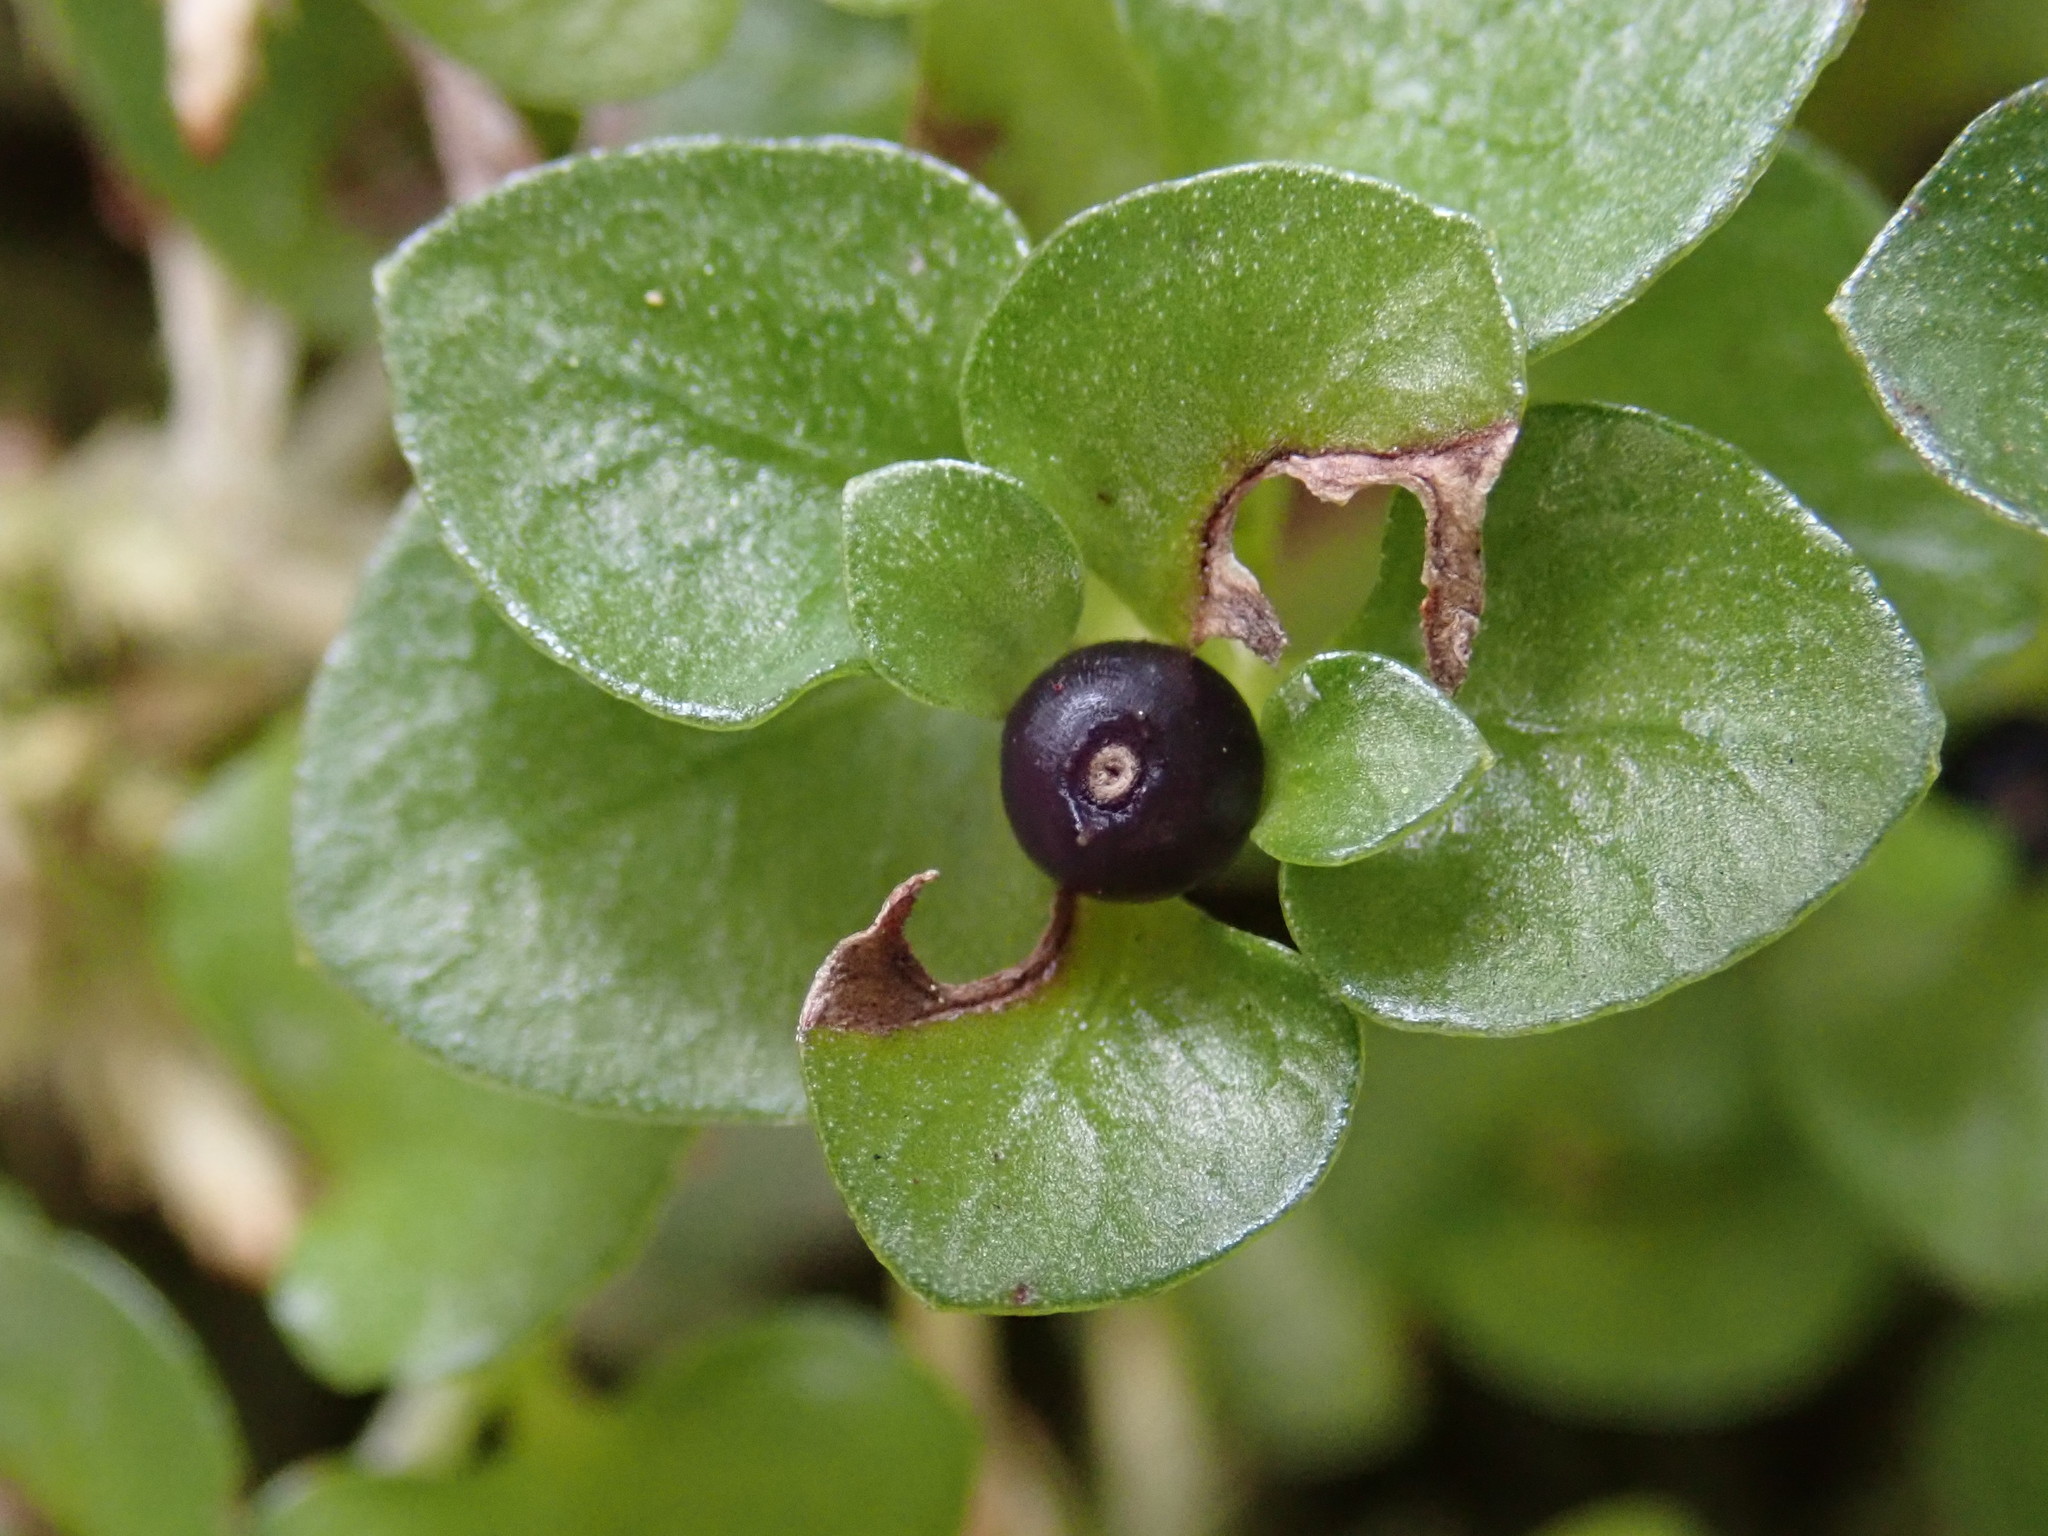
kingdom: Plantae
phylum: Tracheophyta
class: Magnoliopsida
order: Gentianales
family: Rubiaceae
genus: Nertera
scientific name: Nertera nigricarpa
